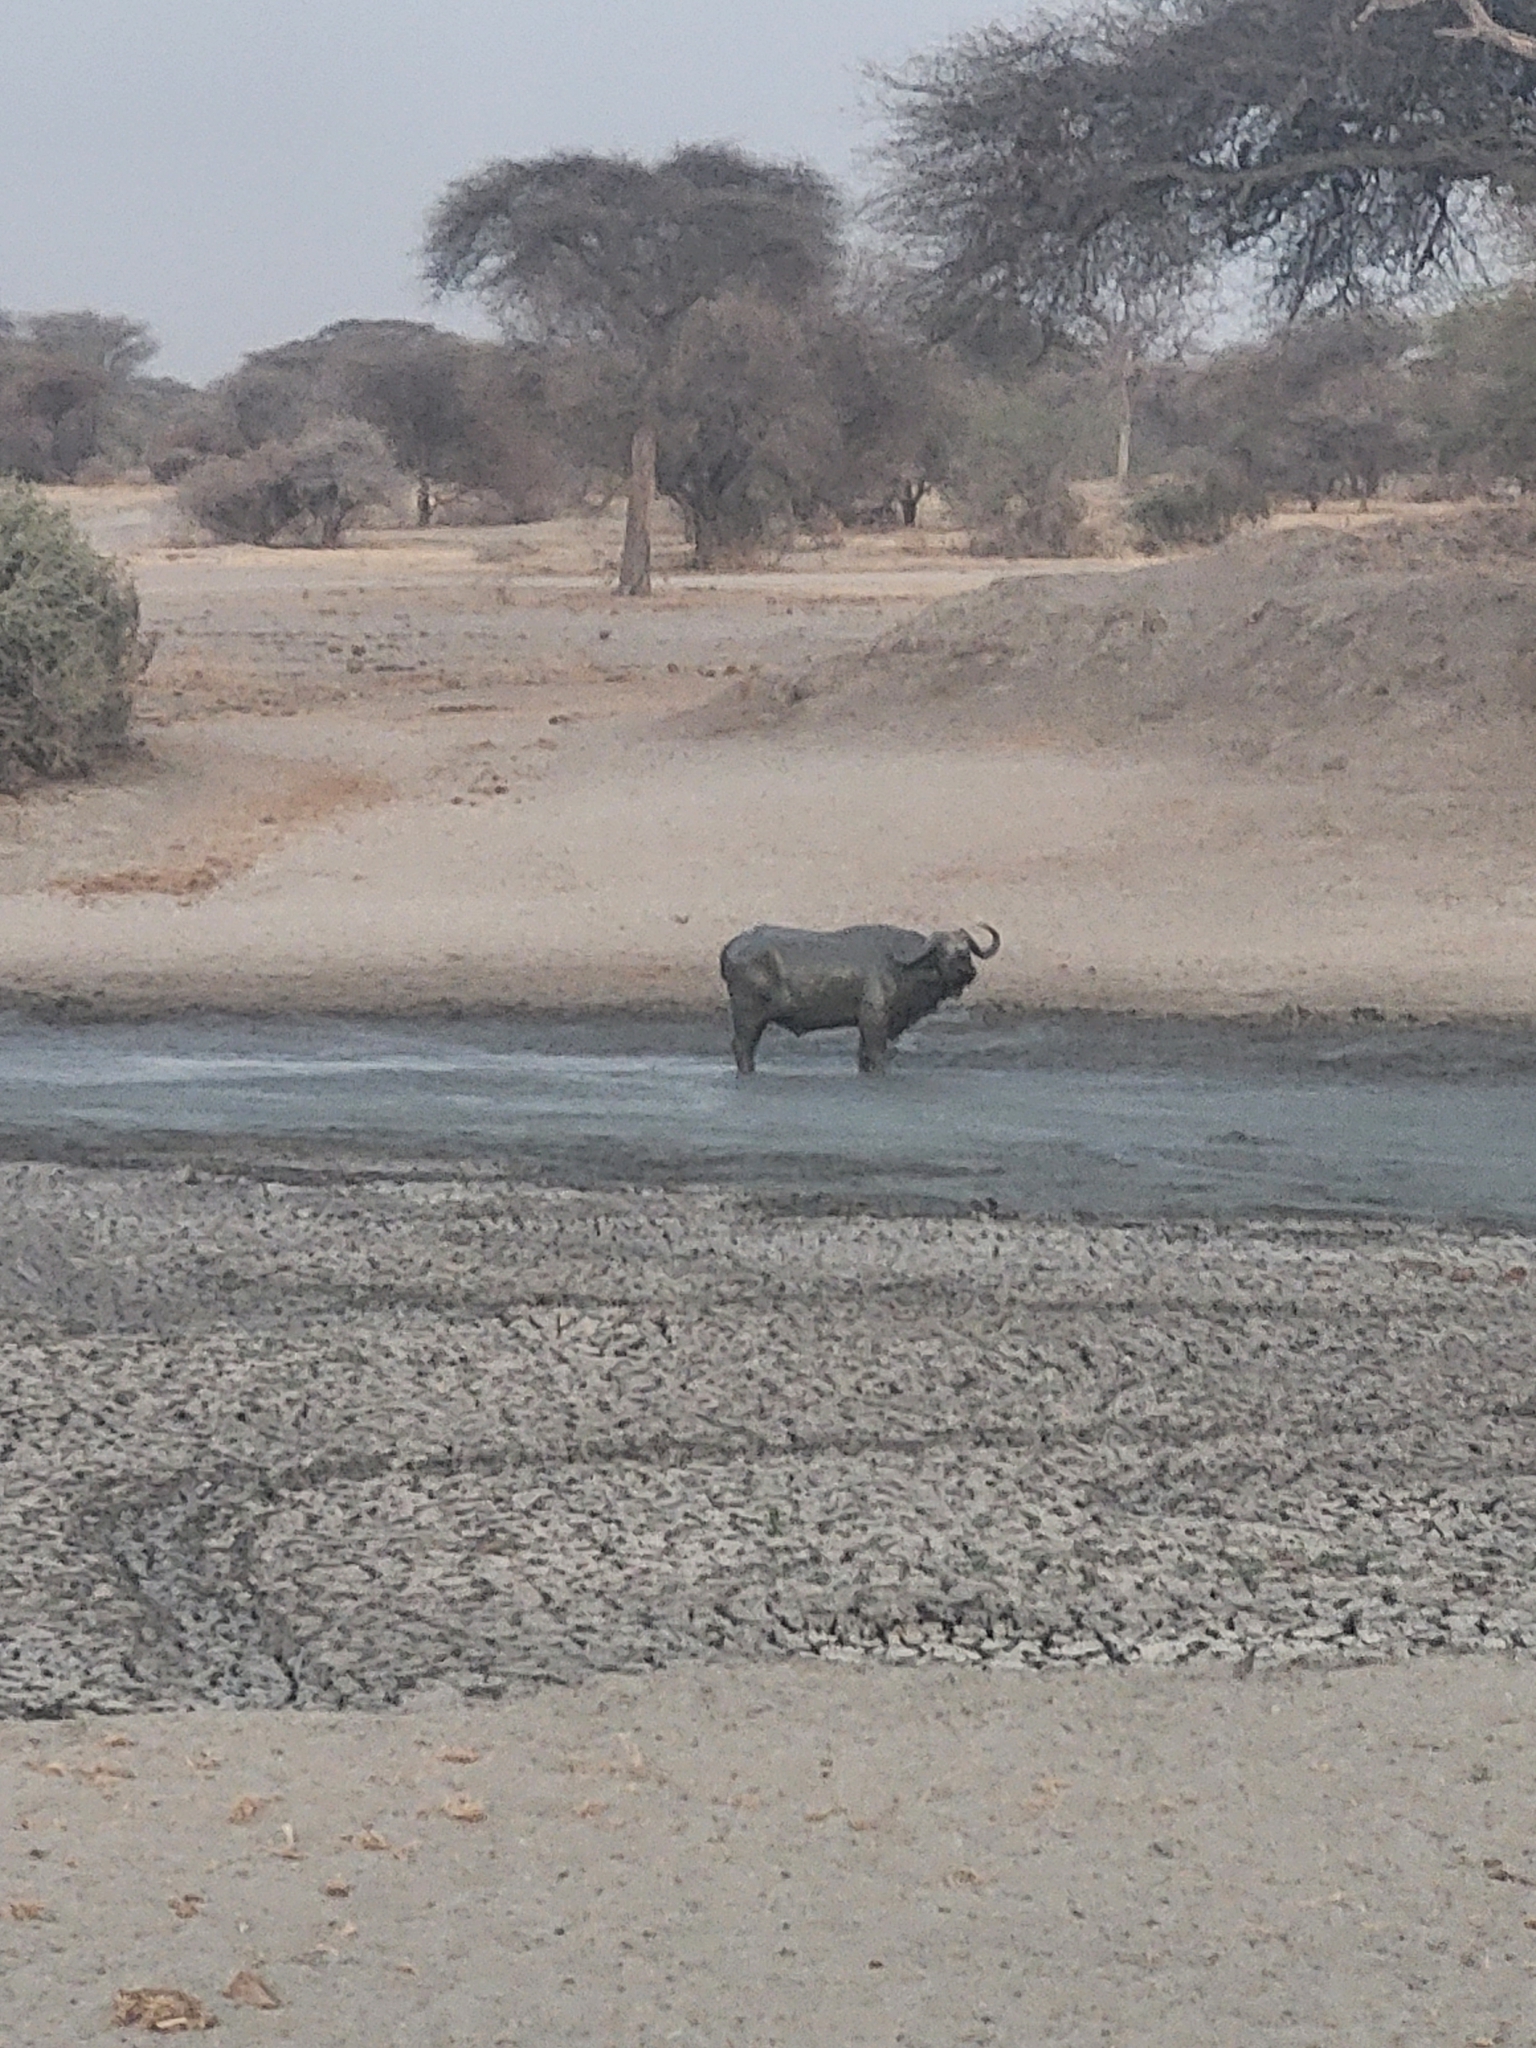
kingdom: Animalia
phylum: Chordata
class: Mammalia
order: Artiodactyla
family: Bovidae
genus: Syncerus
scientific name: Syncerus caffer
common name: African buffalo
